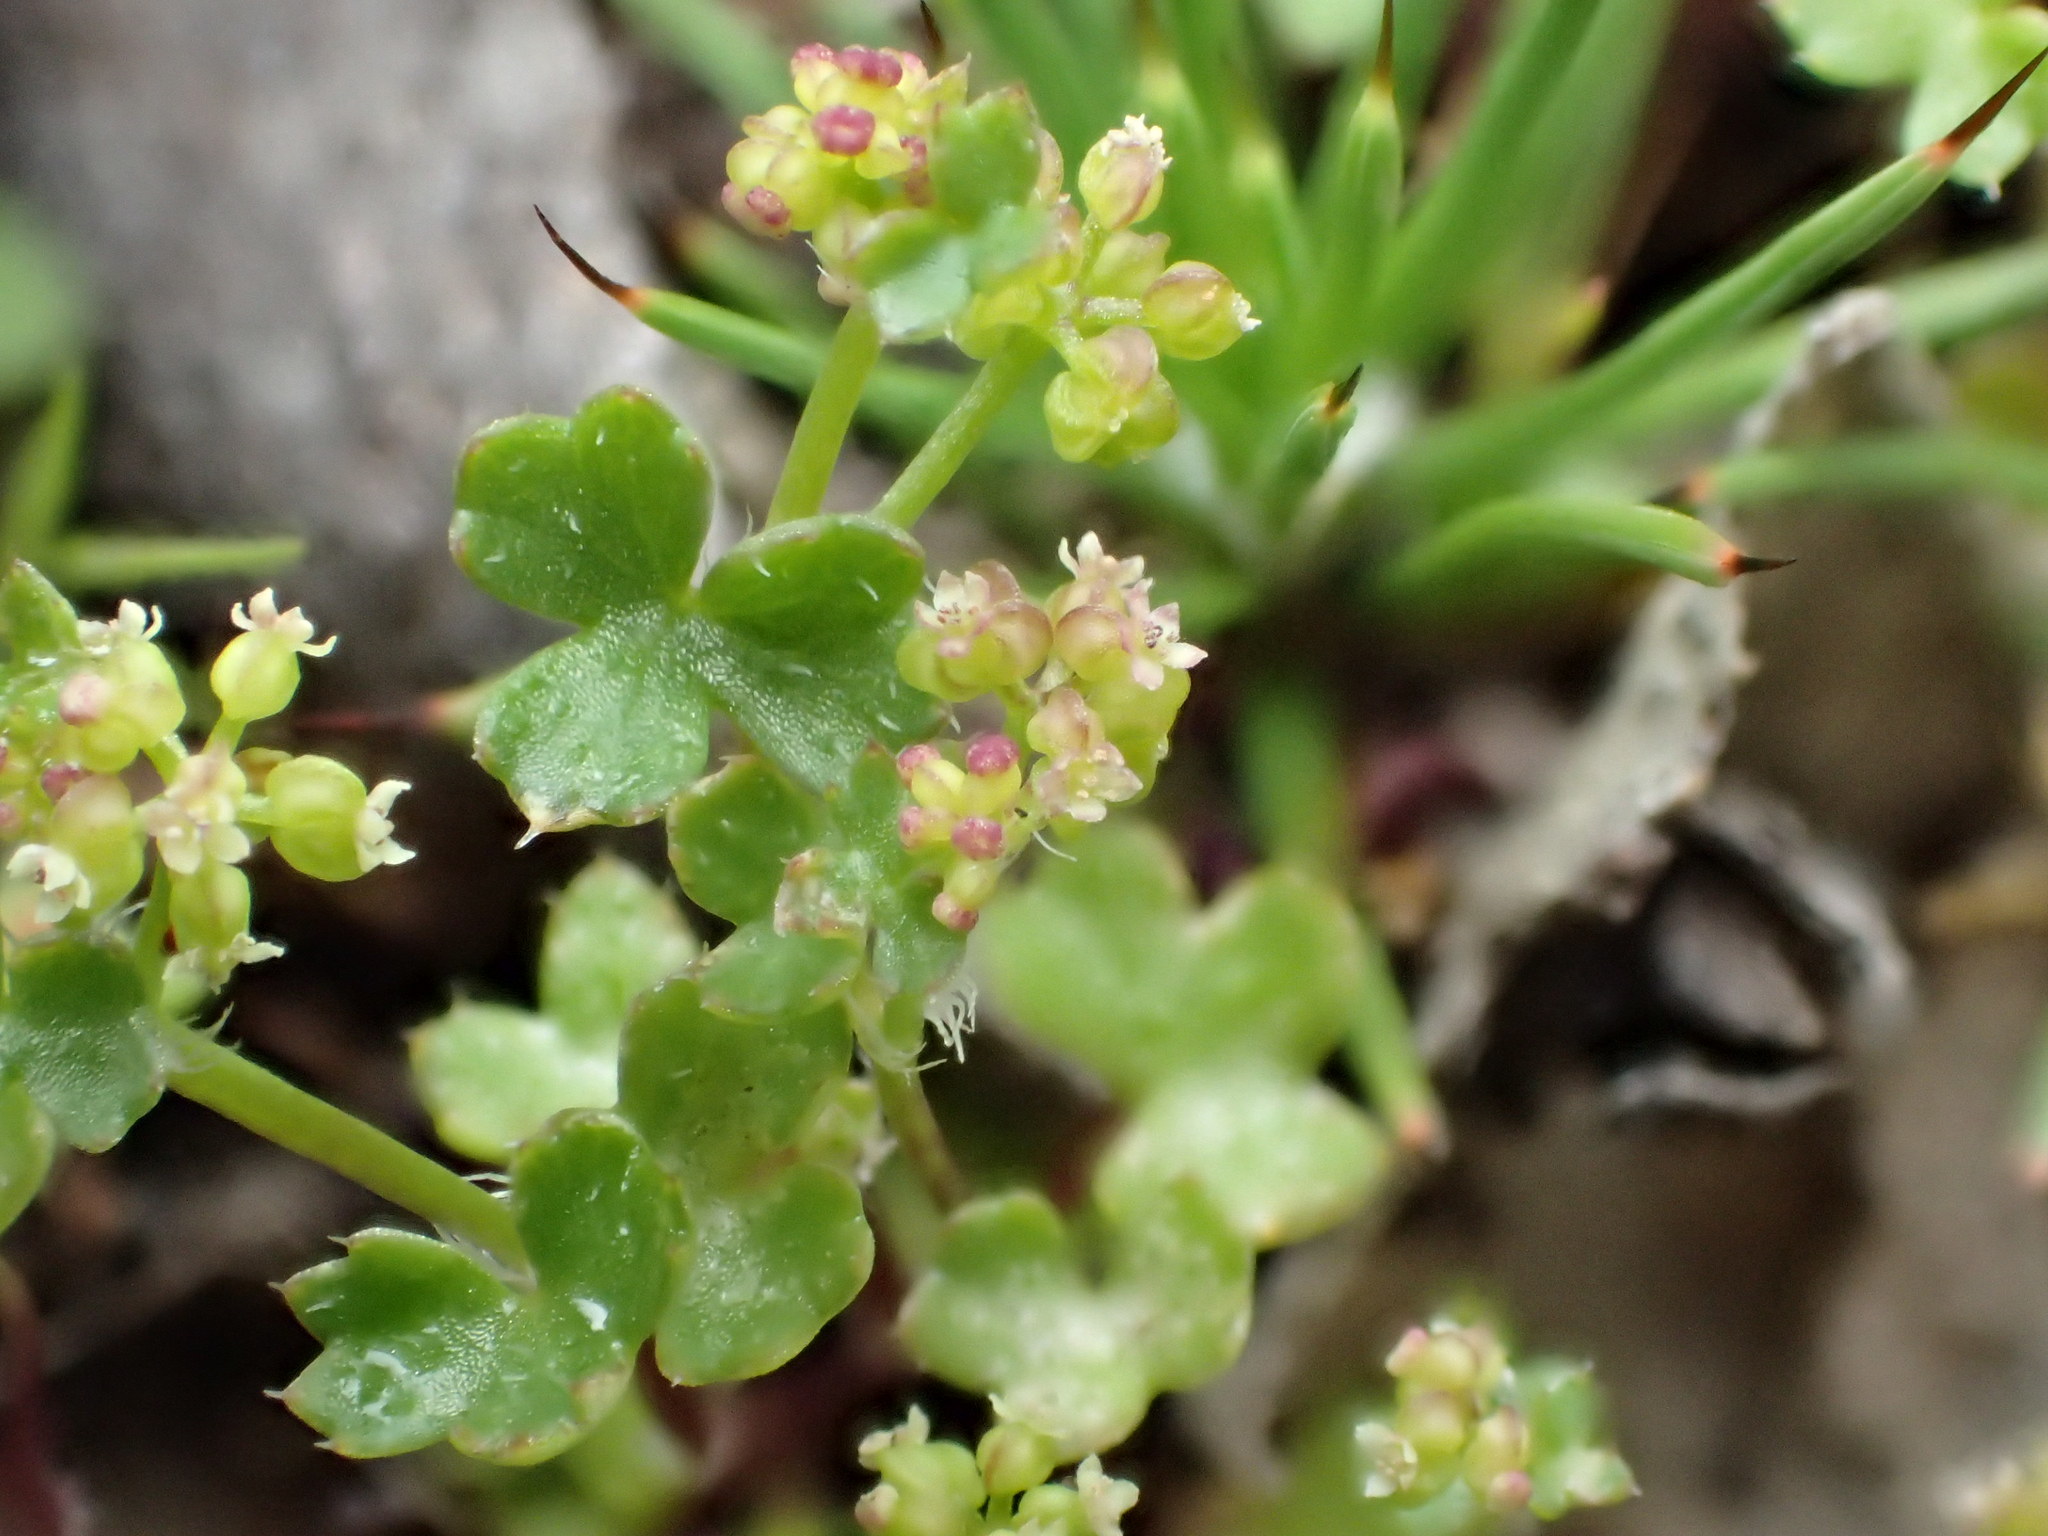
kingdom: Plantae
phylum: Tracheophyta
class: Magnoliopsida
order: Apiales
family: Araliaceae
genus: Hydrocotyle
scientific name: Hydrocotyle callicarpa
